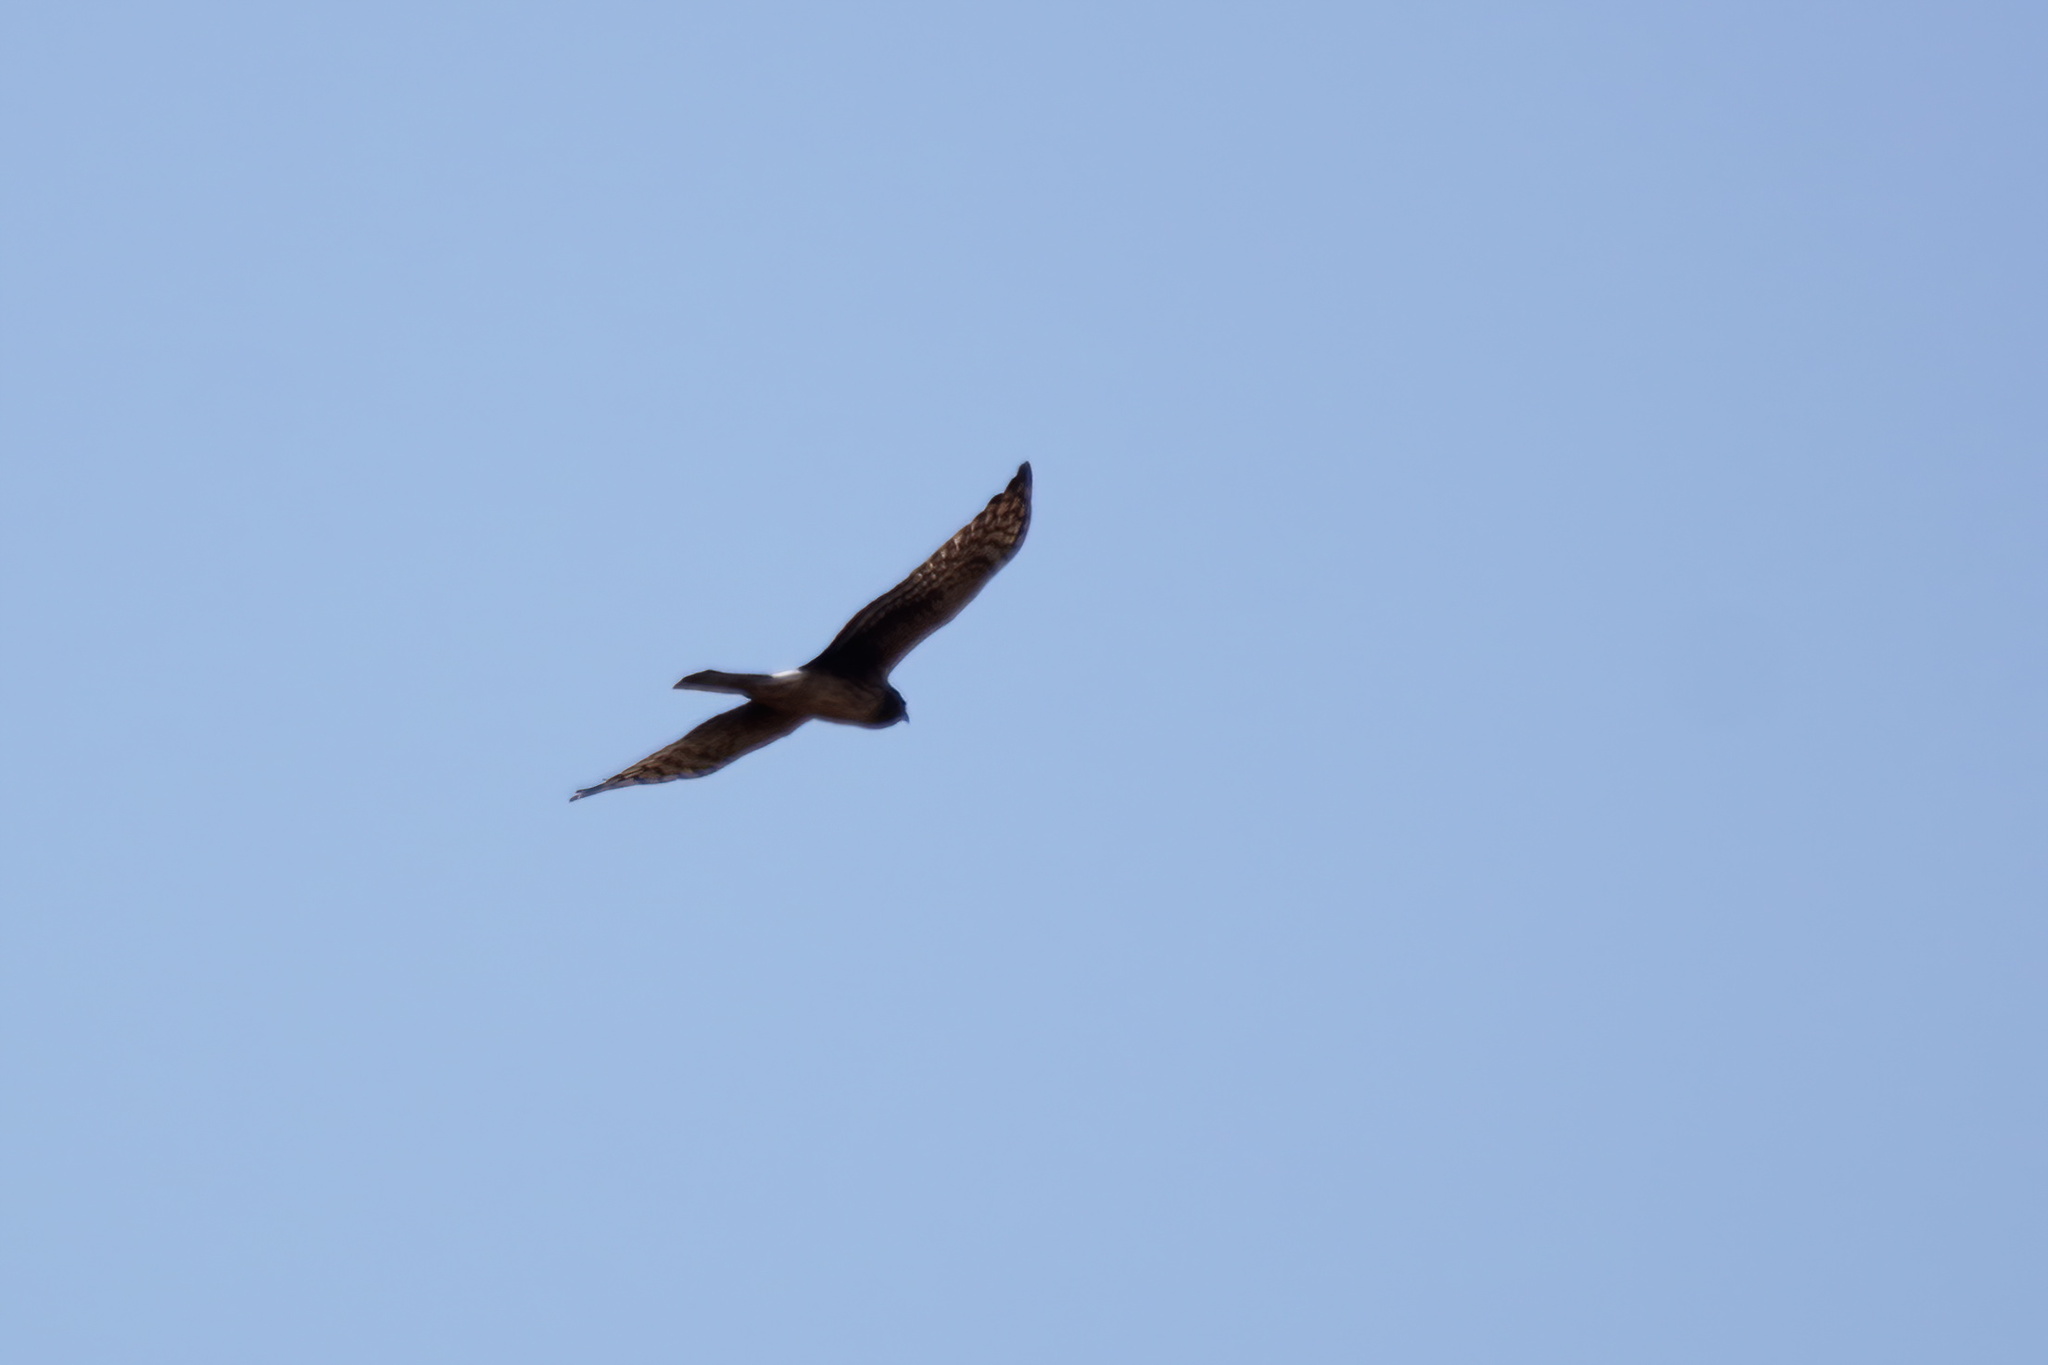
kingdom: Animalia
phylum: Chordata
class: Aves
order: Accipitriformes
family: Accipitridae
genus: Circus
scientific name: Circus cyaneus
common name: Hen harrier
